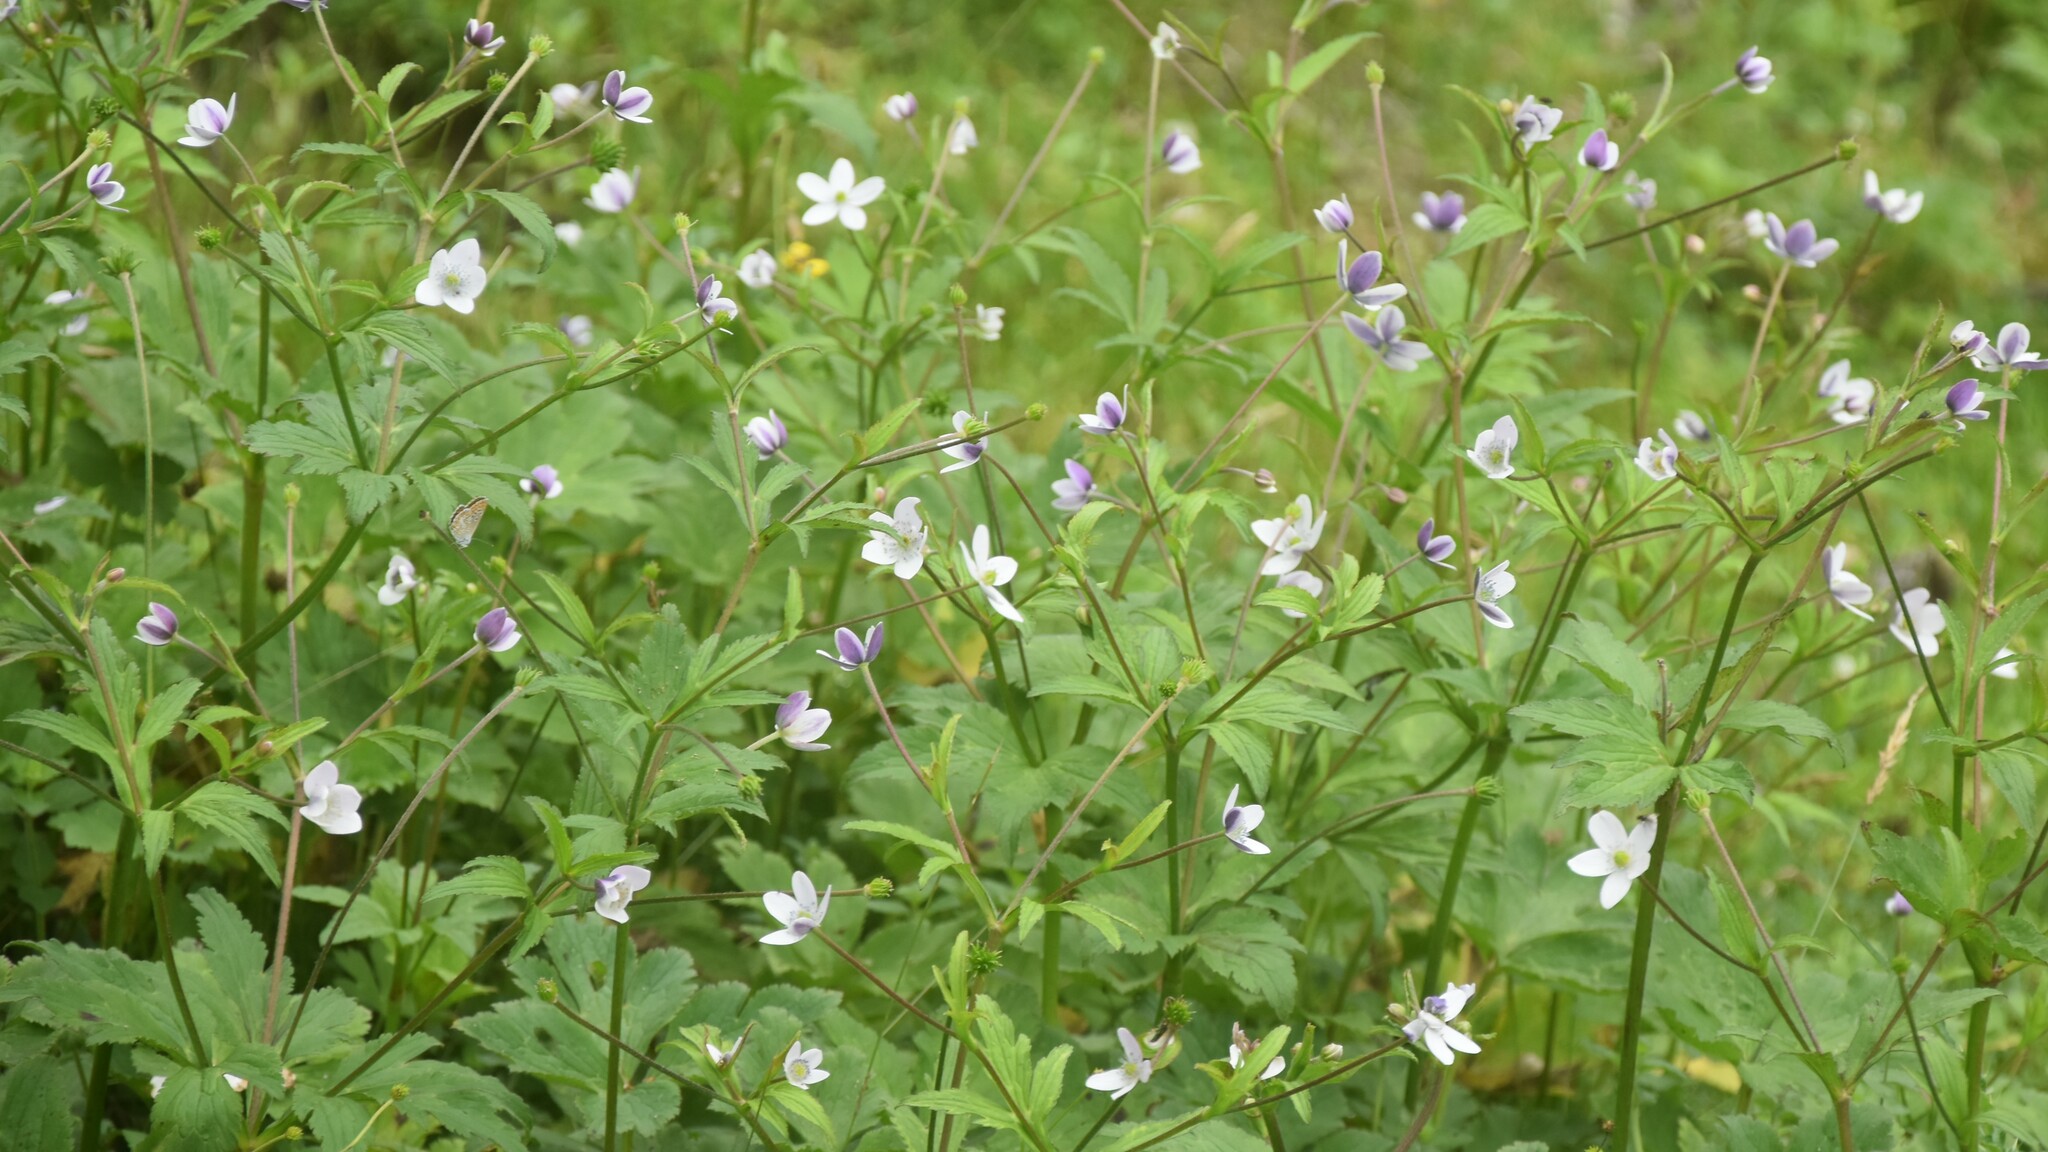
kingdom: Plantae
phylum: Tracheophyta
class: Magnoliopsida
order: Ranunculales
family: Ranunculaceae
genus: Eriocapitella
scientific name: Eriocapitella rivularis
